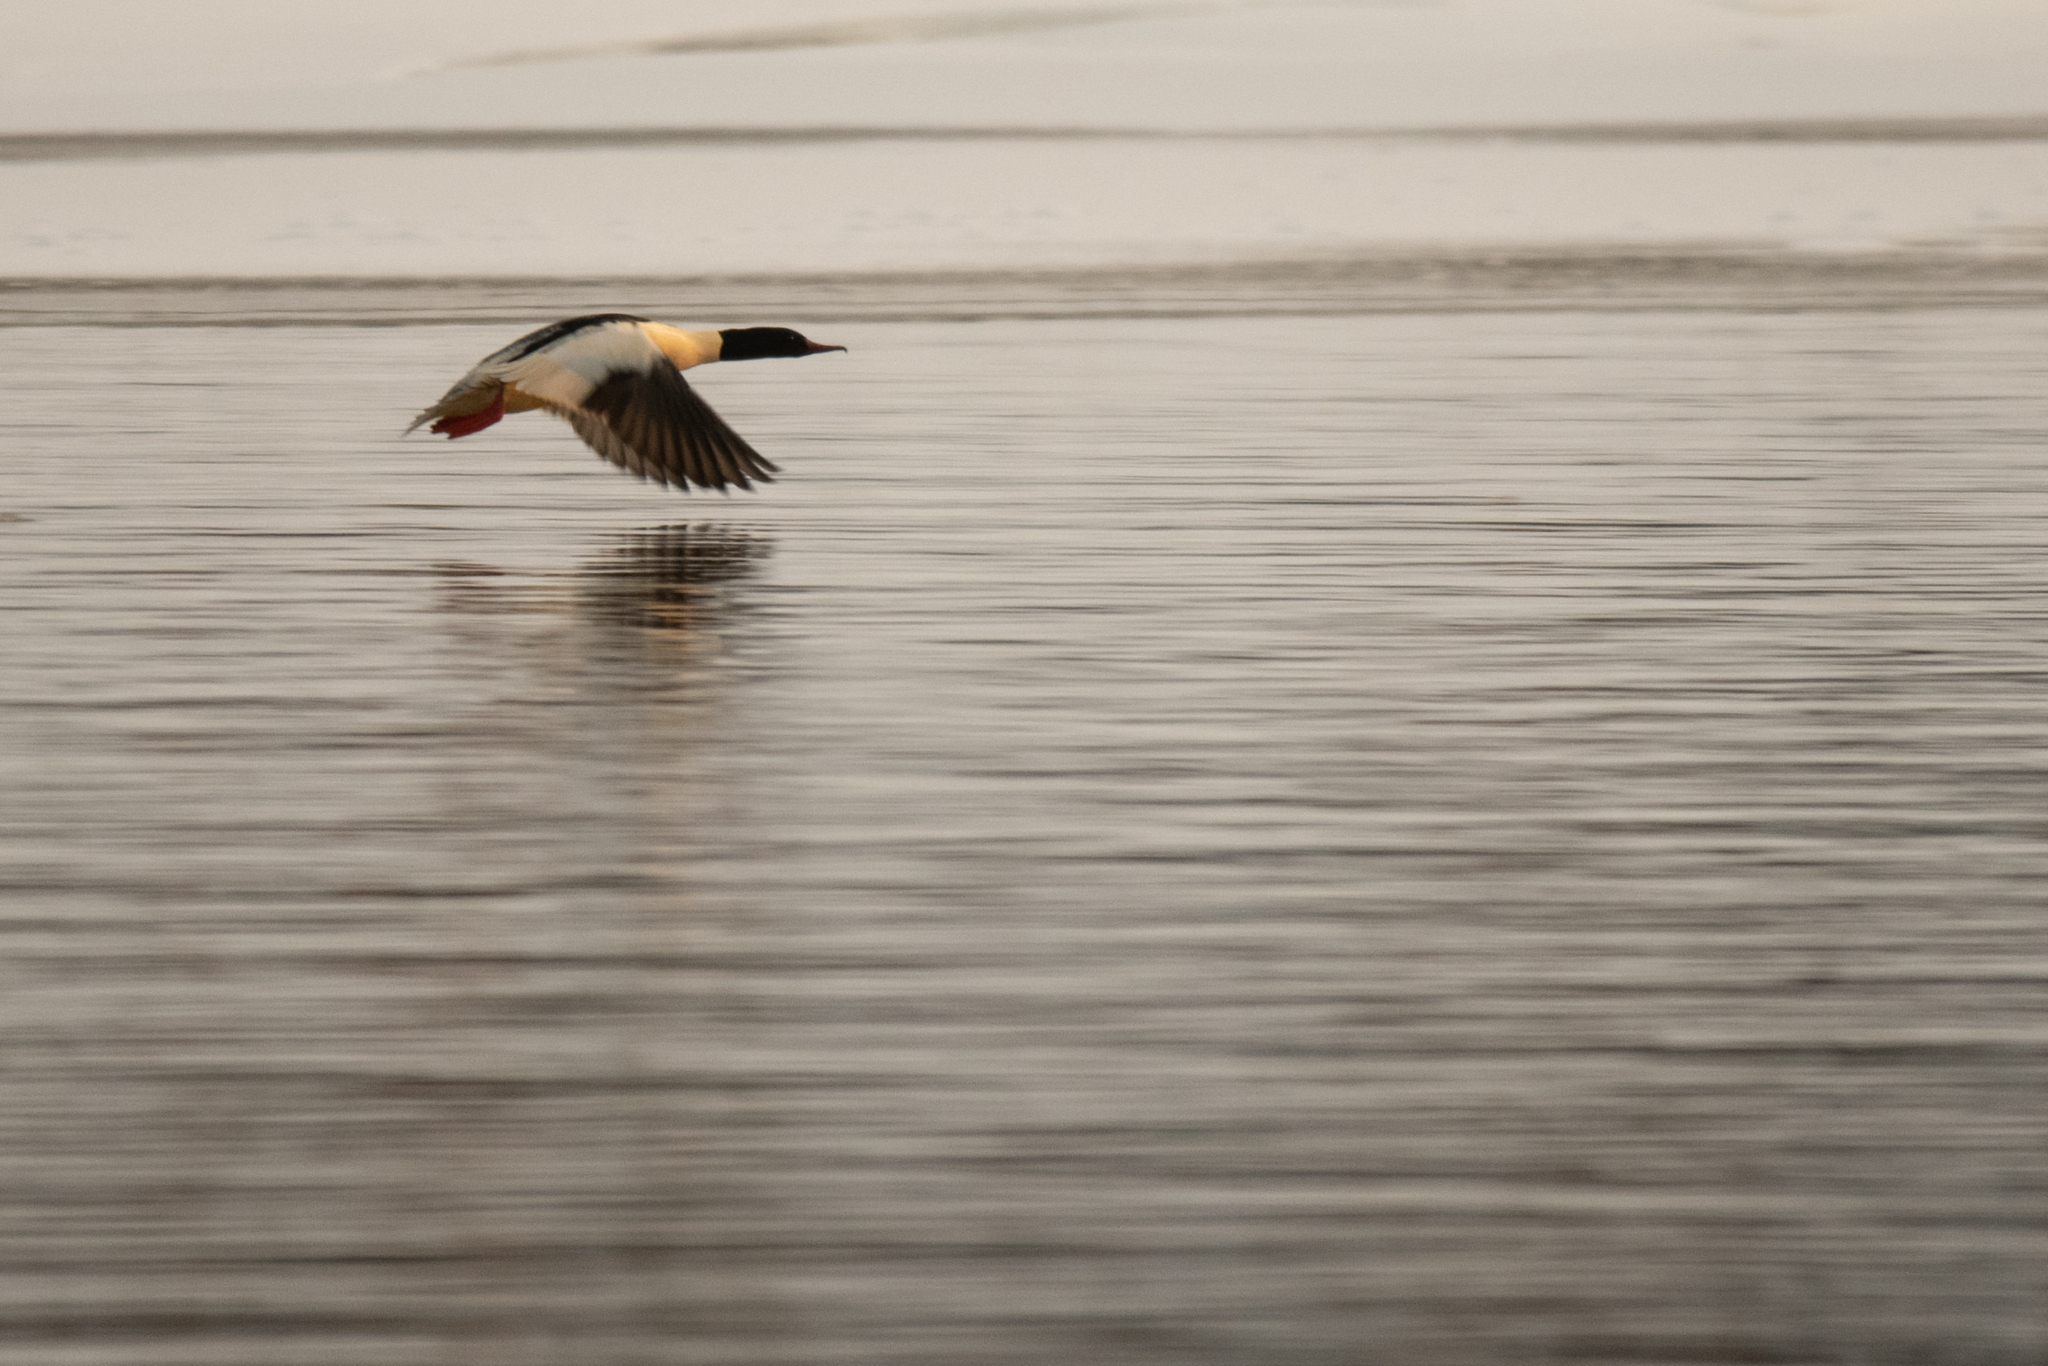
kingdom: Animalia
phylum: Chordata
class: Aves
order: Anseriformes
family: Anatidae
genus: Mergus
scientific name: Mergus merganser
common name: Common merganser
